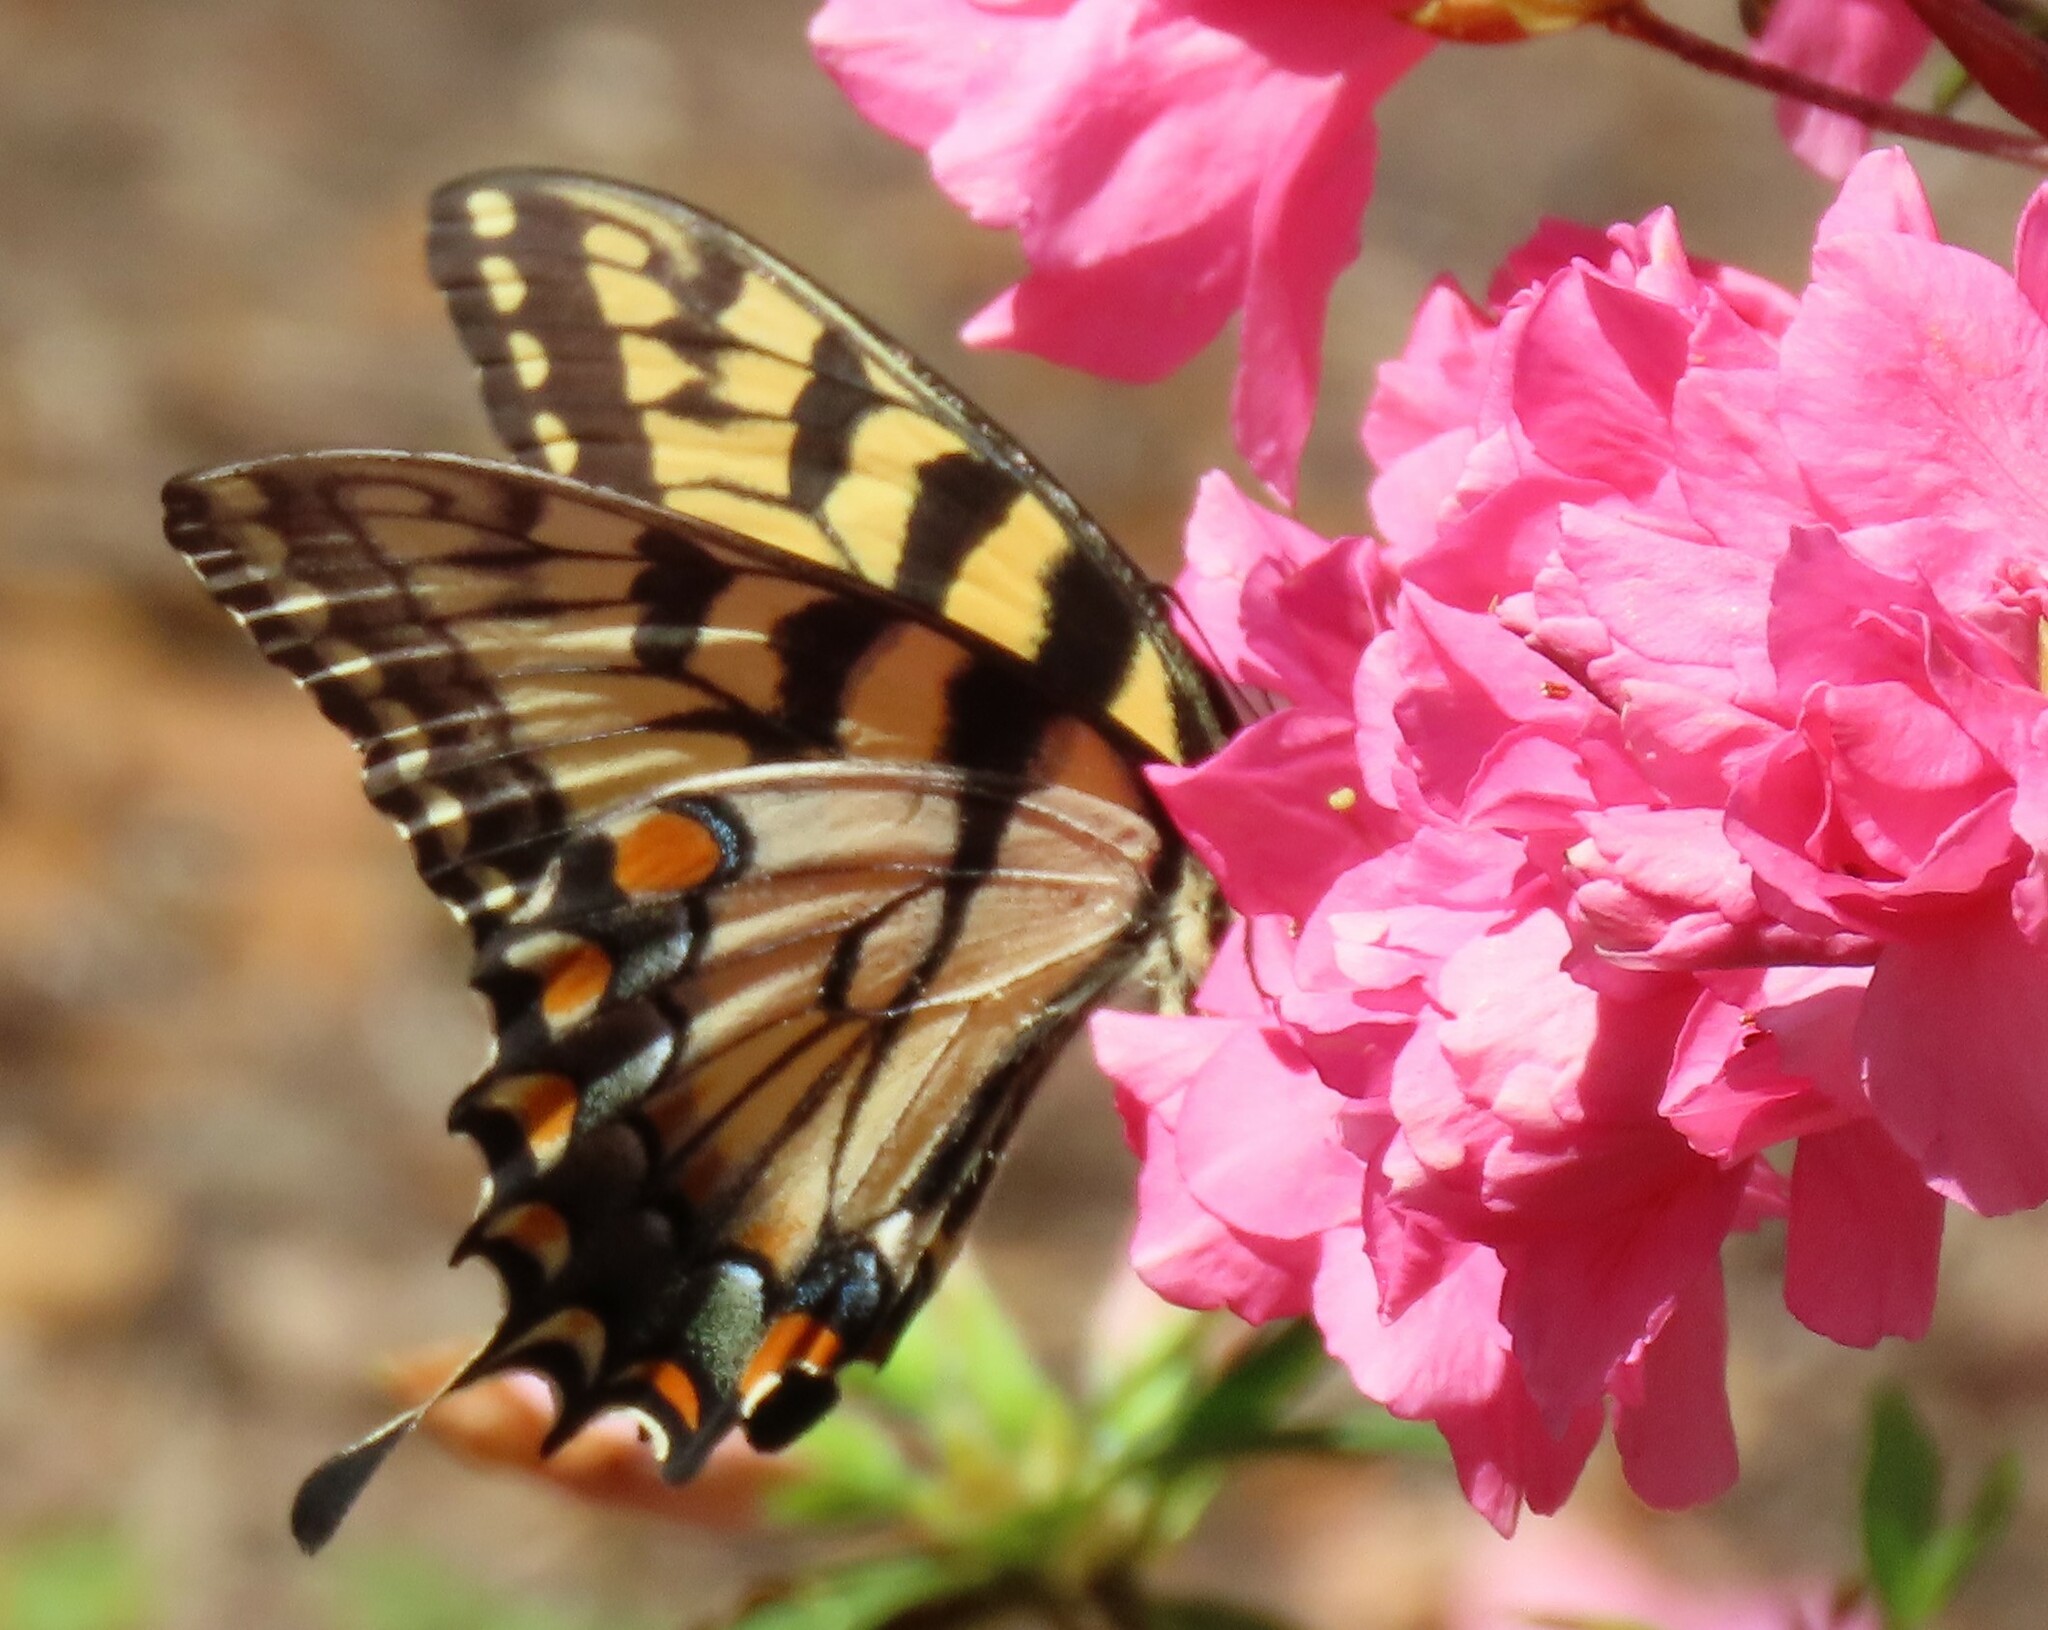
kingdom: Animalia
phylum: Arthropoda
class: Insecta
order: Lepidoptera
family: Papilionidae
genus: Papilio
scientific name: Papilio glaucus
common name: Tiger swallowtail
